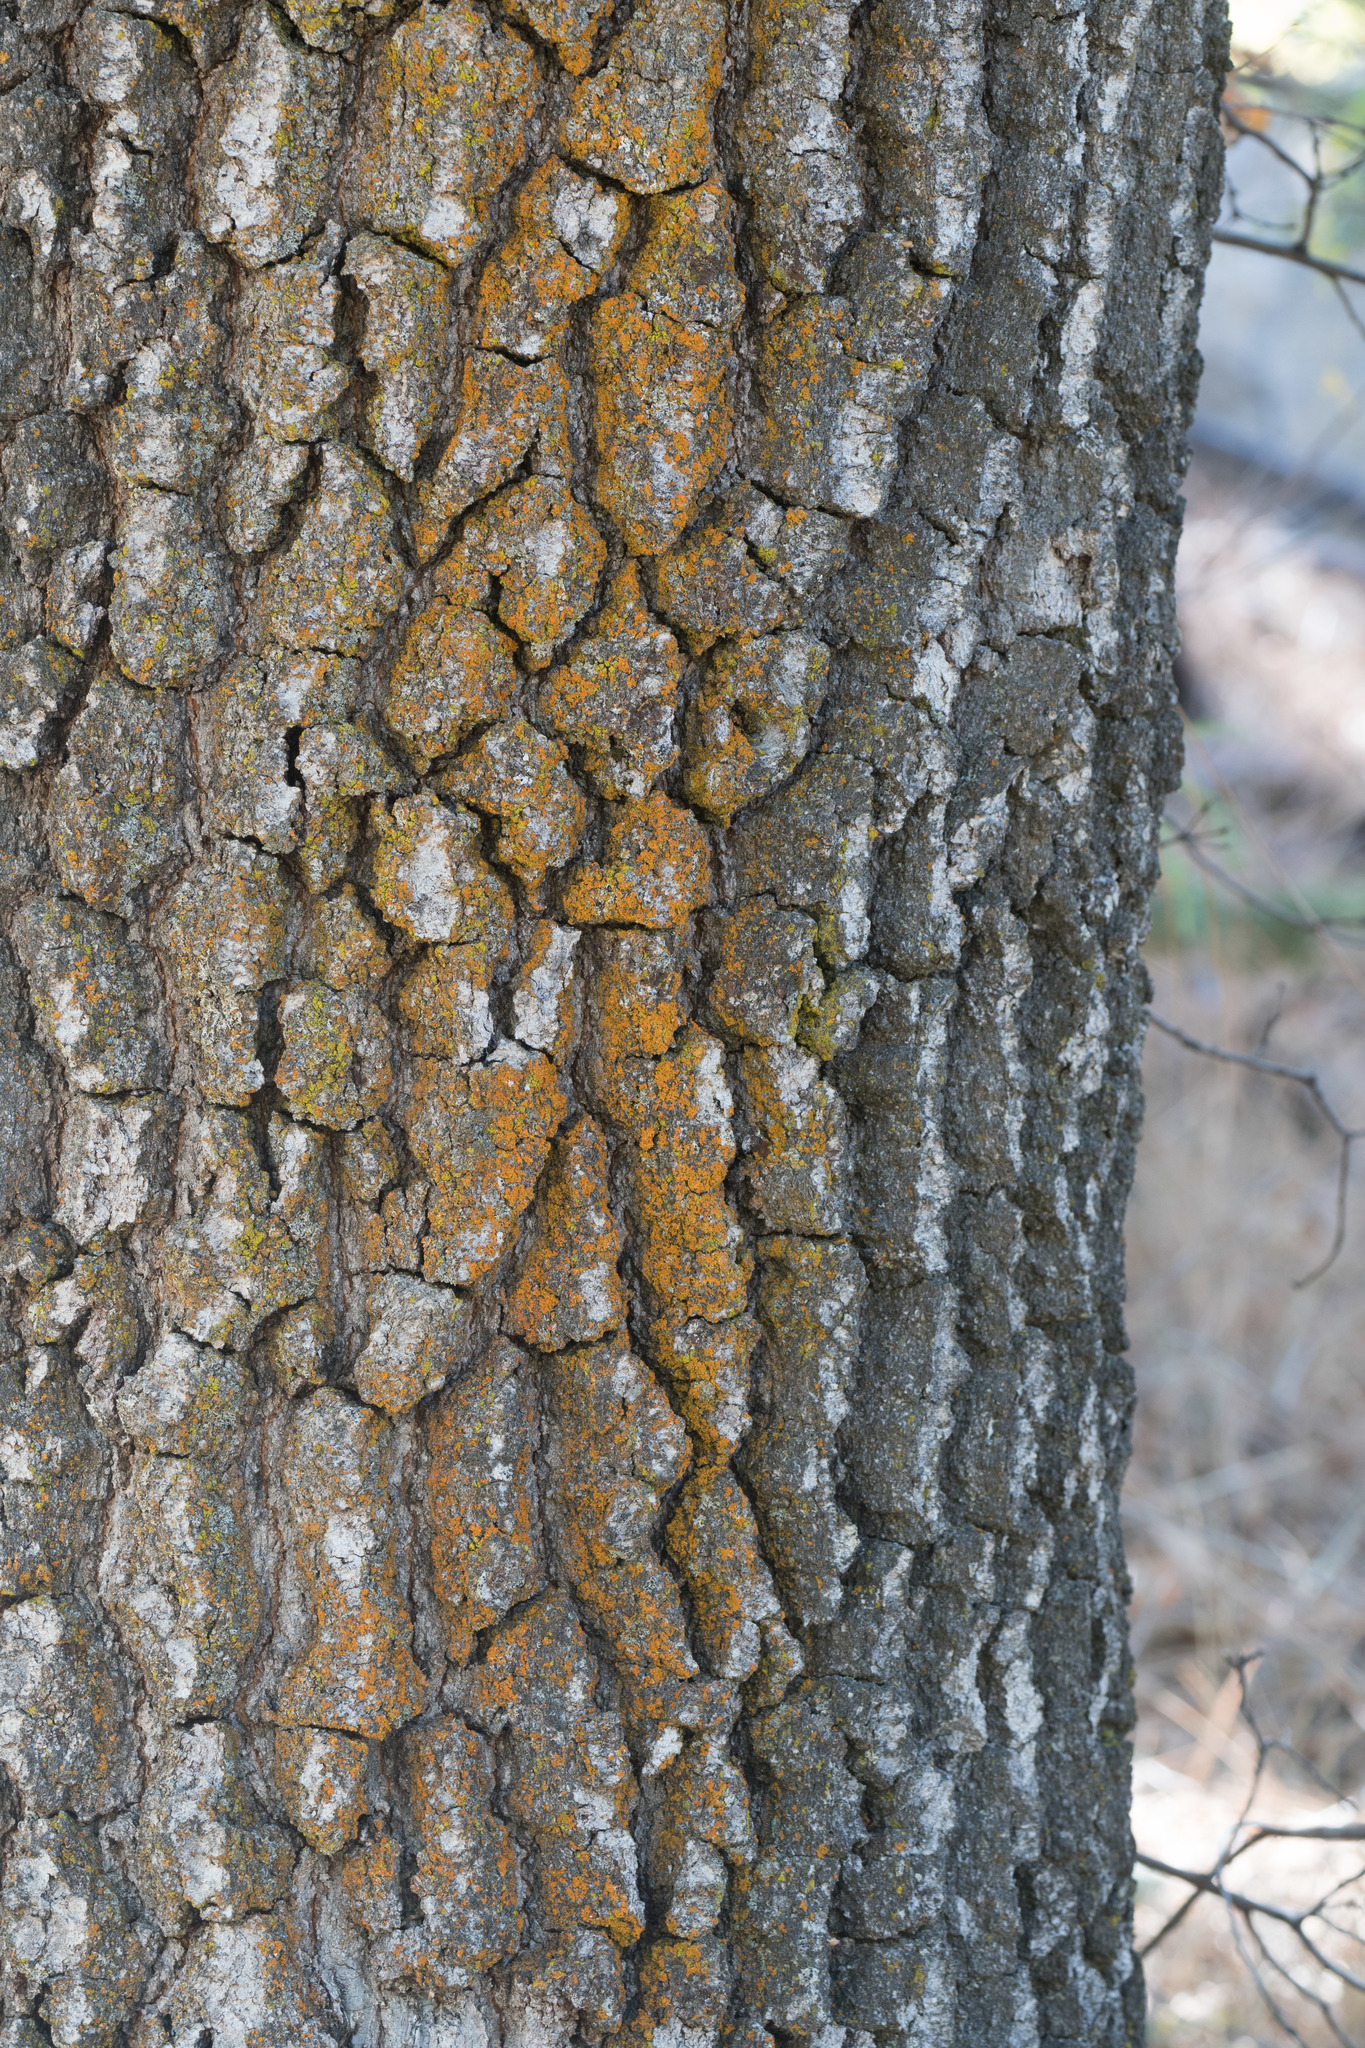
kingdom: Fungi
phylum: Ascomycota
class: Candelariomycetes
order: Candelariales
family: Candelariaceae
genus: Candelariella
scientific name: Candelariella rosulans
